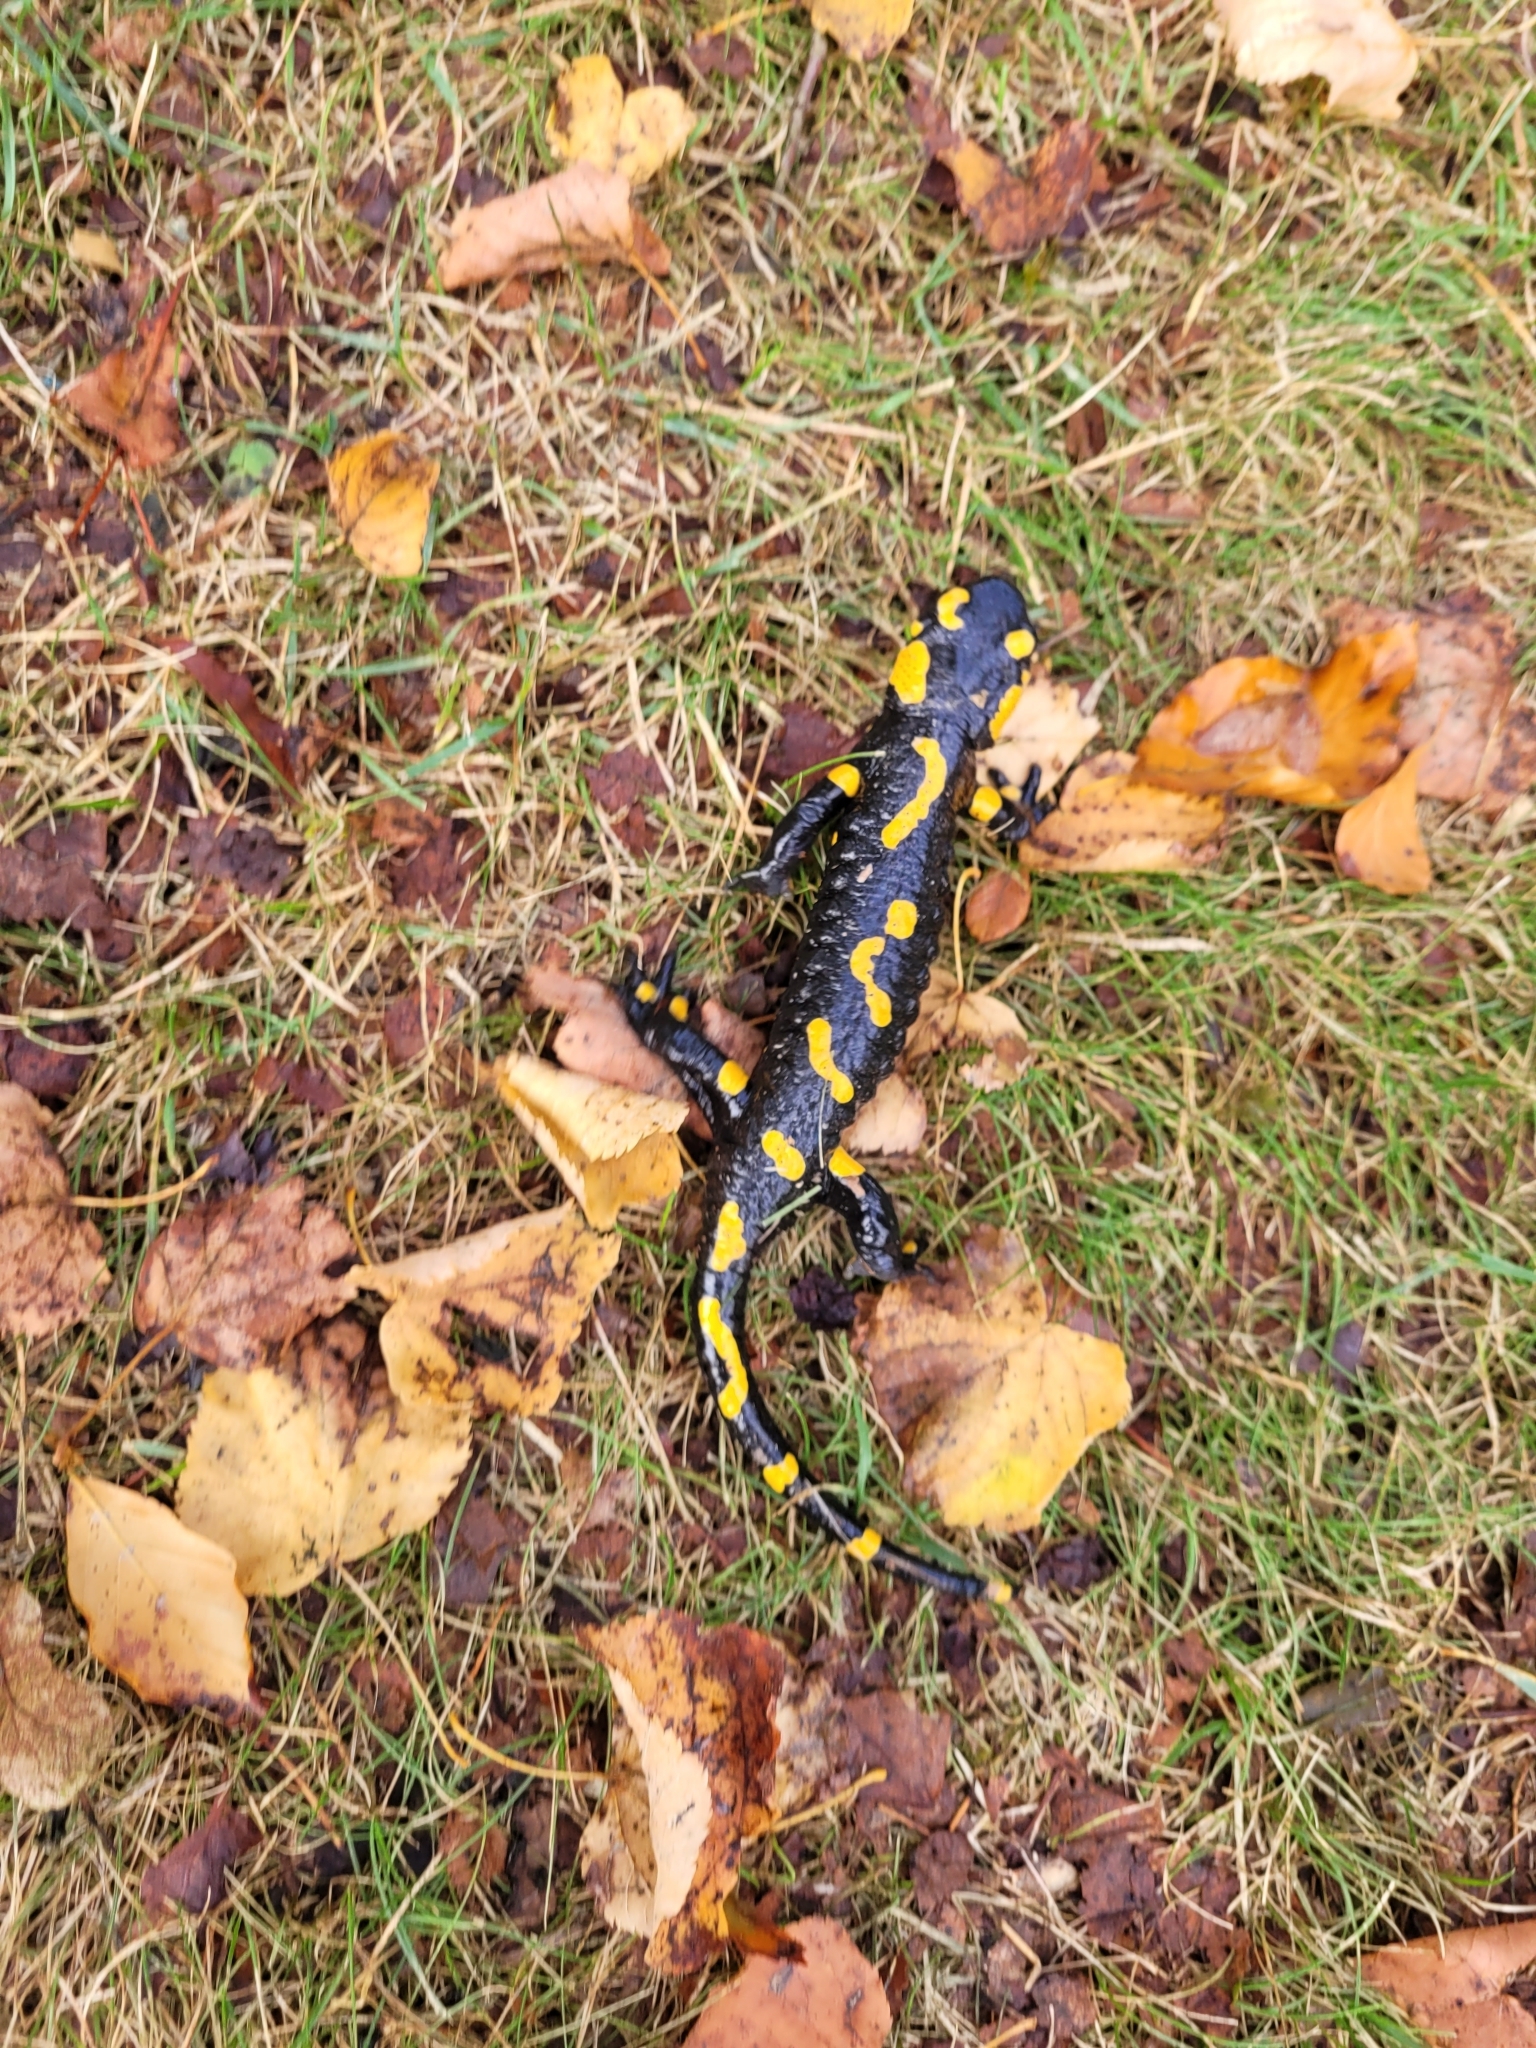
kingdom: Animalia
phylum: Chordata
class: Amphibia
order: Caudata
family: Salamandridae
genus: Salamandra
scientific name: Salamandra salamandra
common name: Fire salamander
